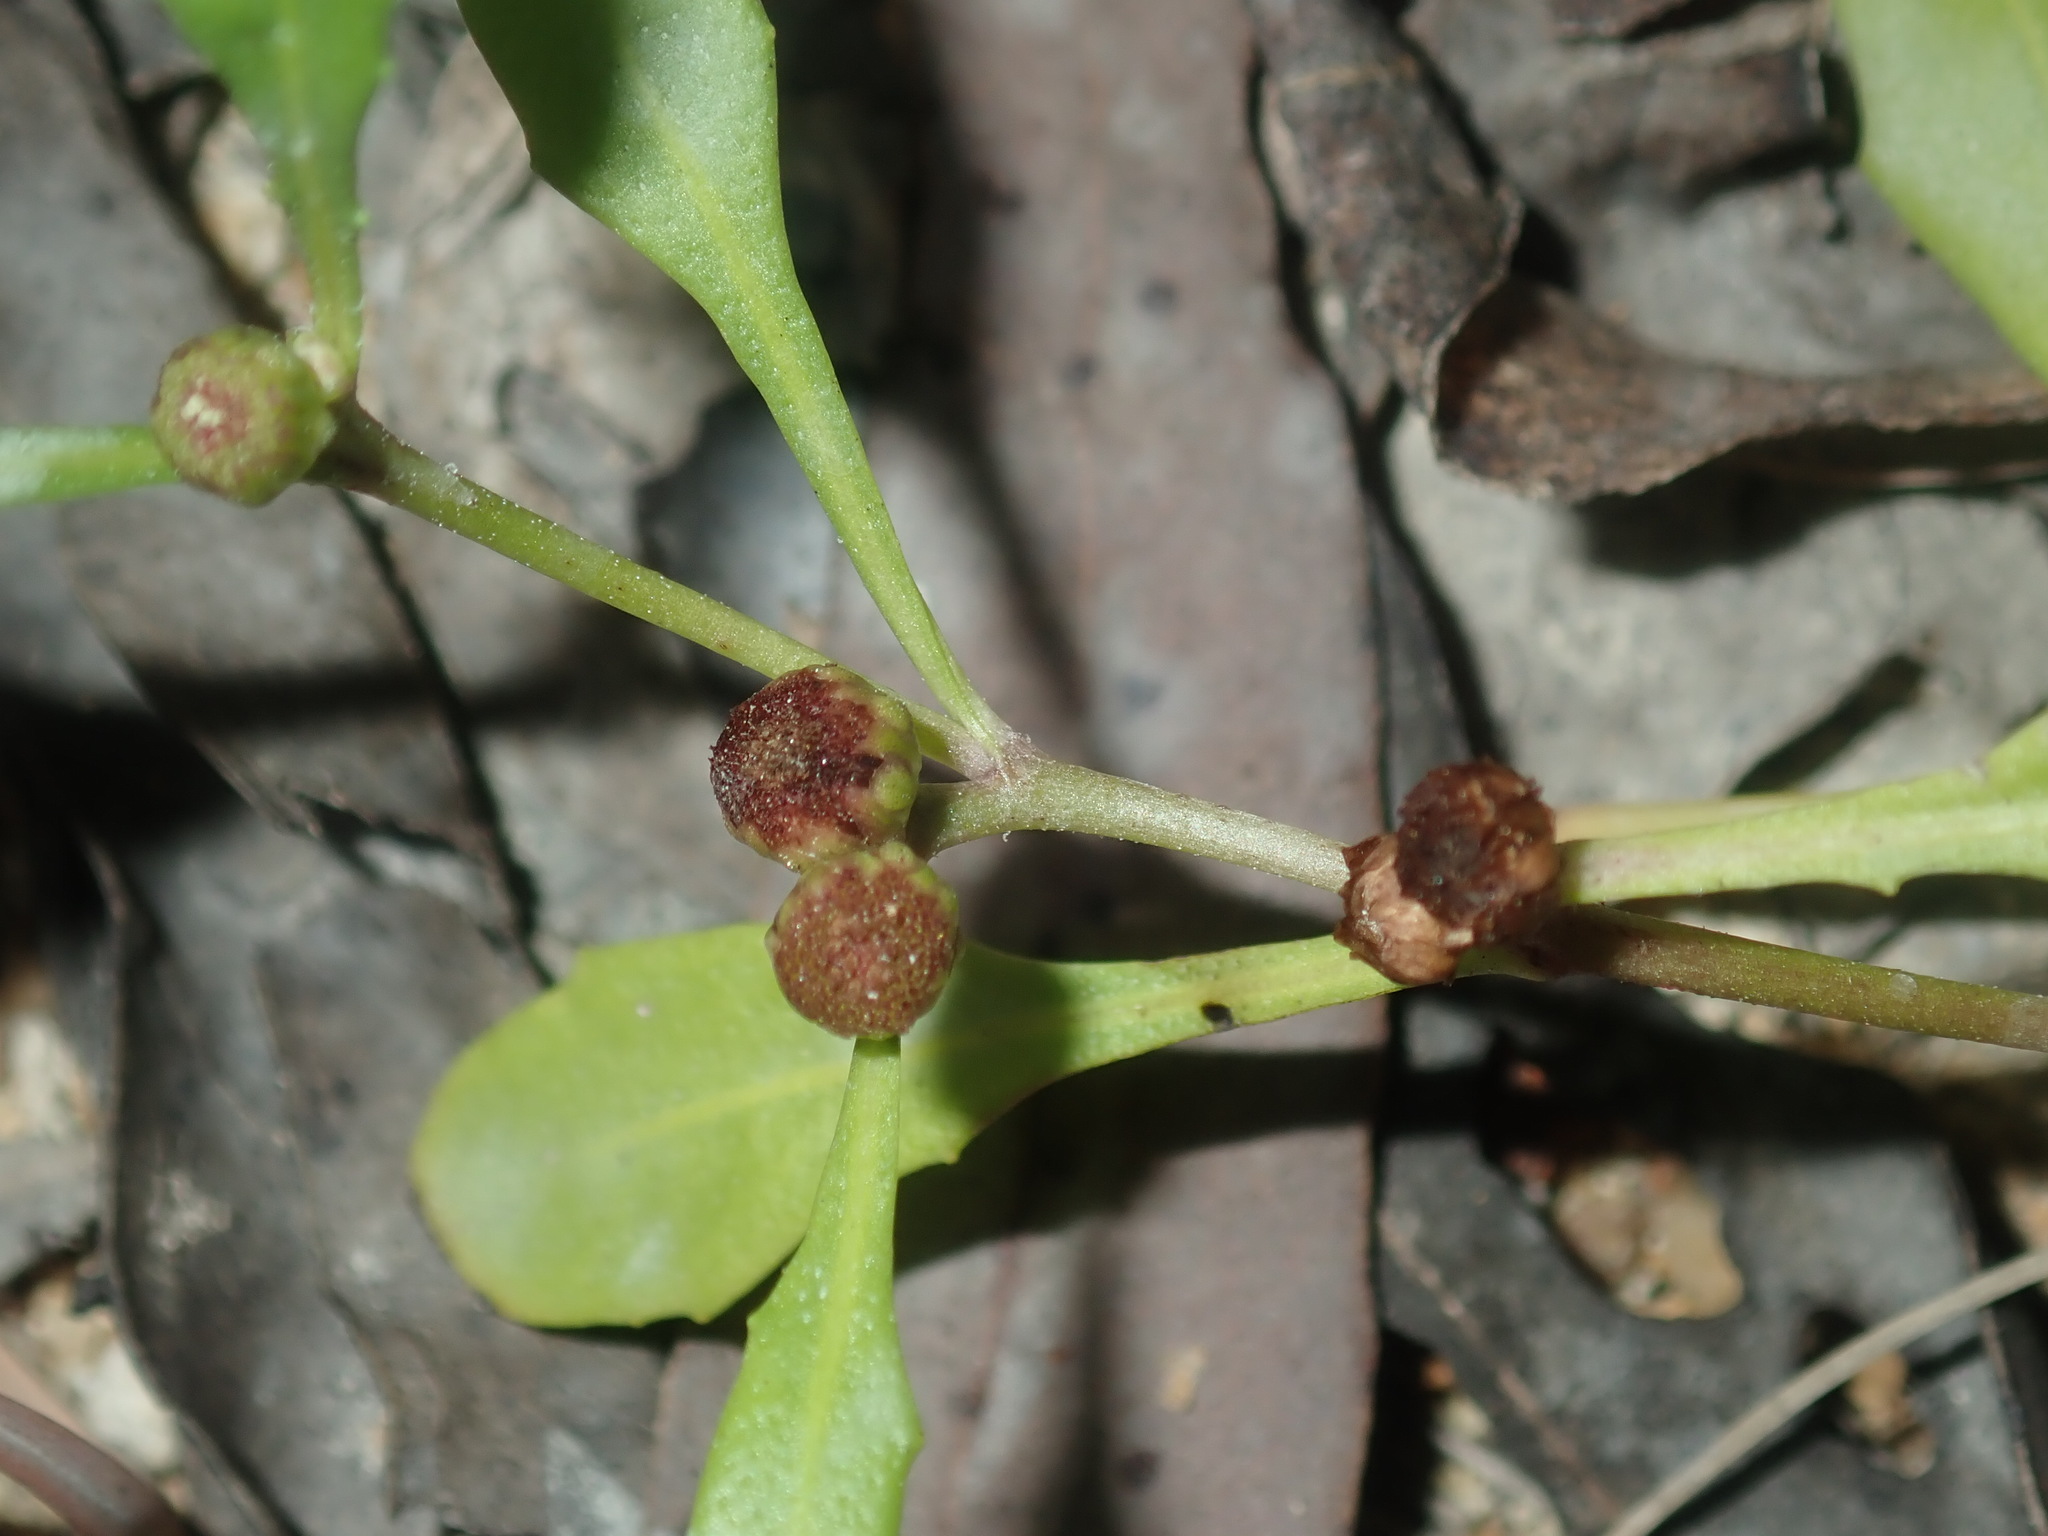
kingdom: Plantae
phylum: Tracheophyta
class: Magnoliopsida
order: Asterales
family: Asteraceae
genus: Sphaeromorphaea
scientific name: Sphaeromorphaea australis
